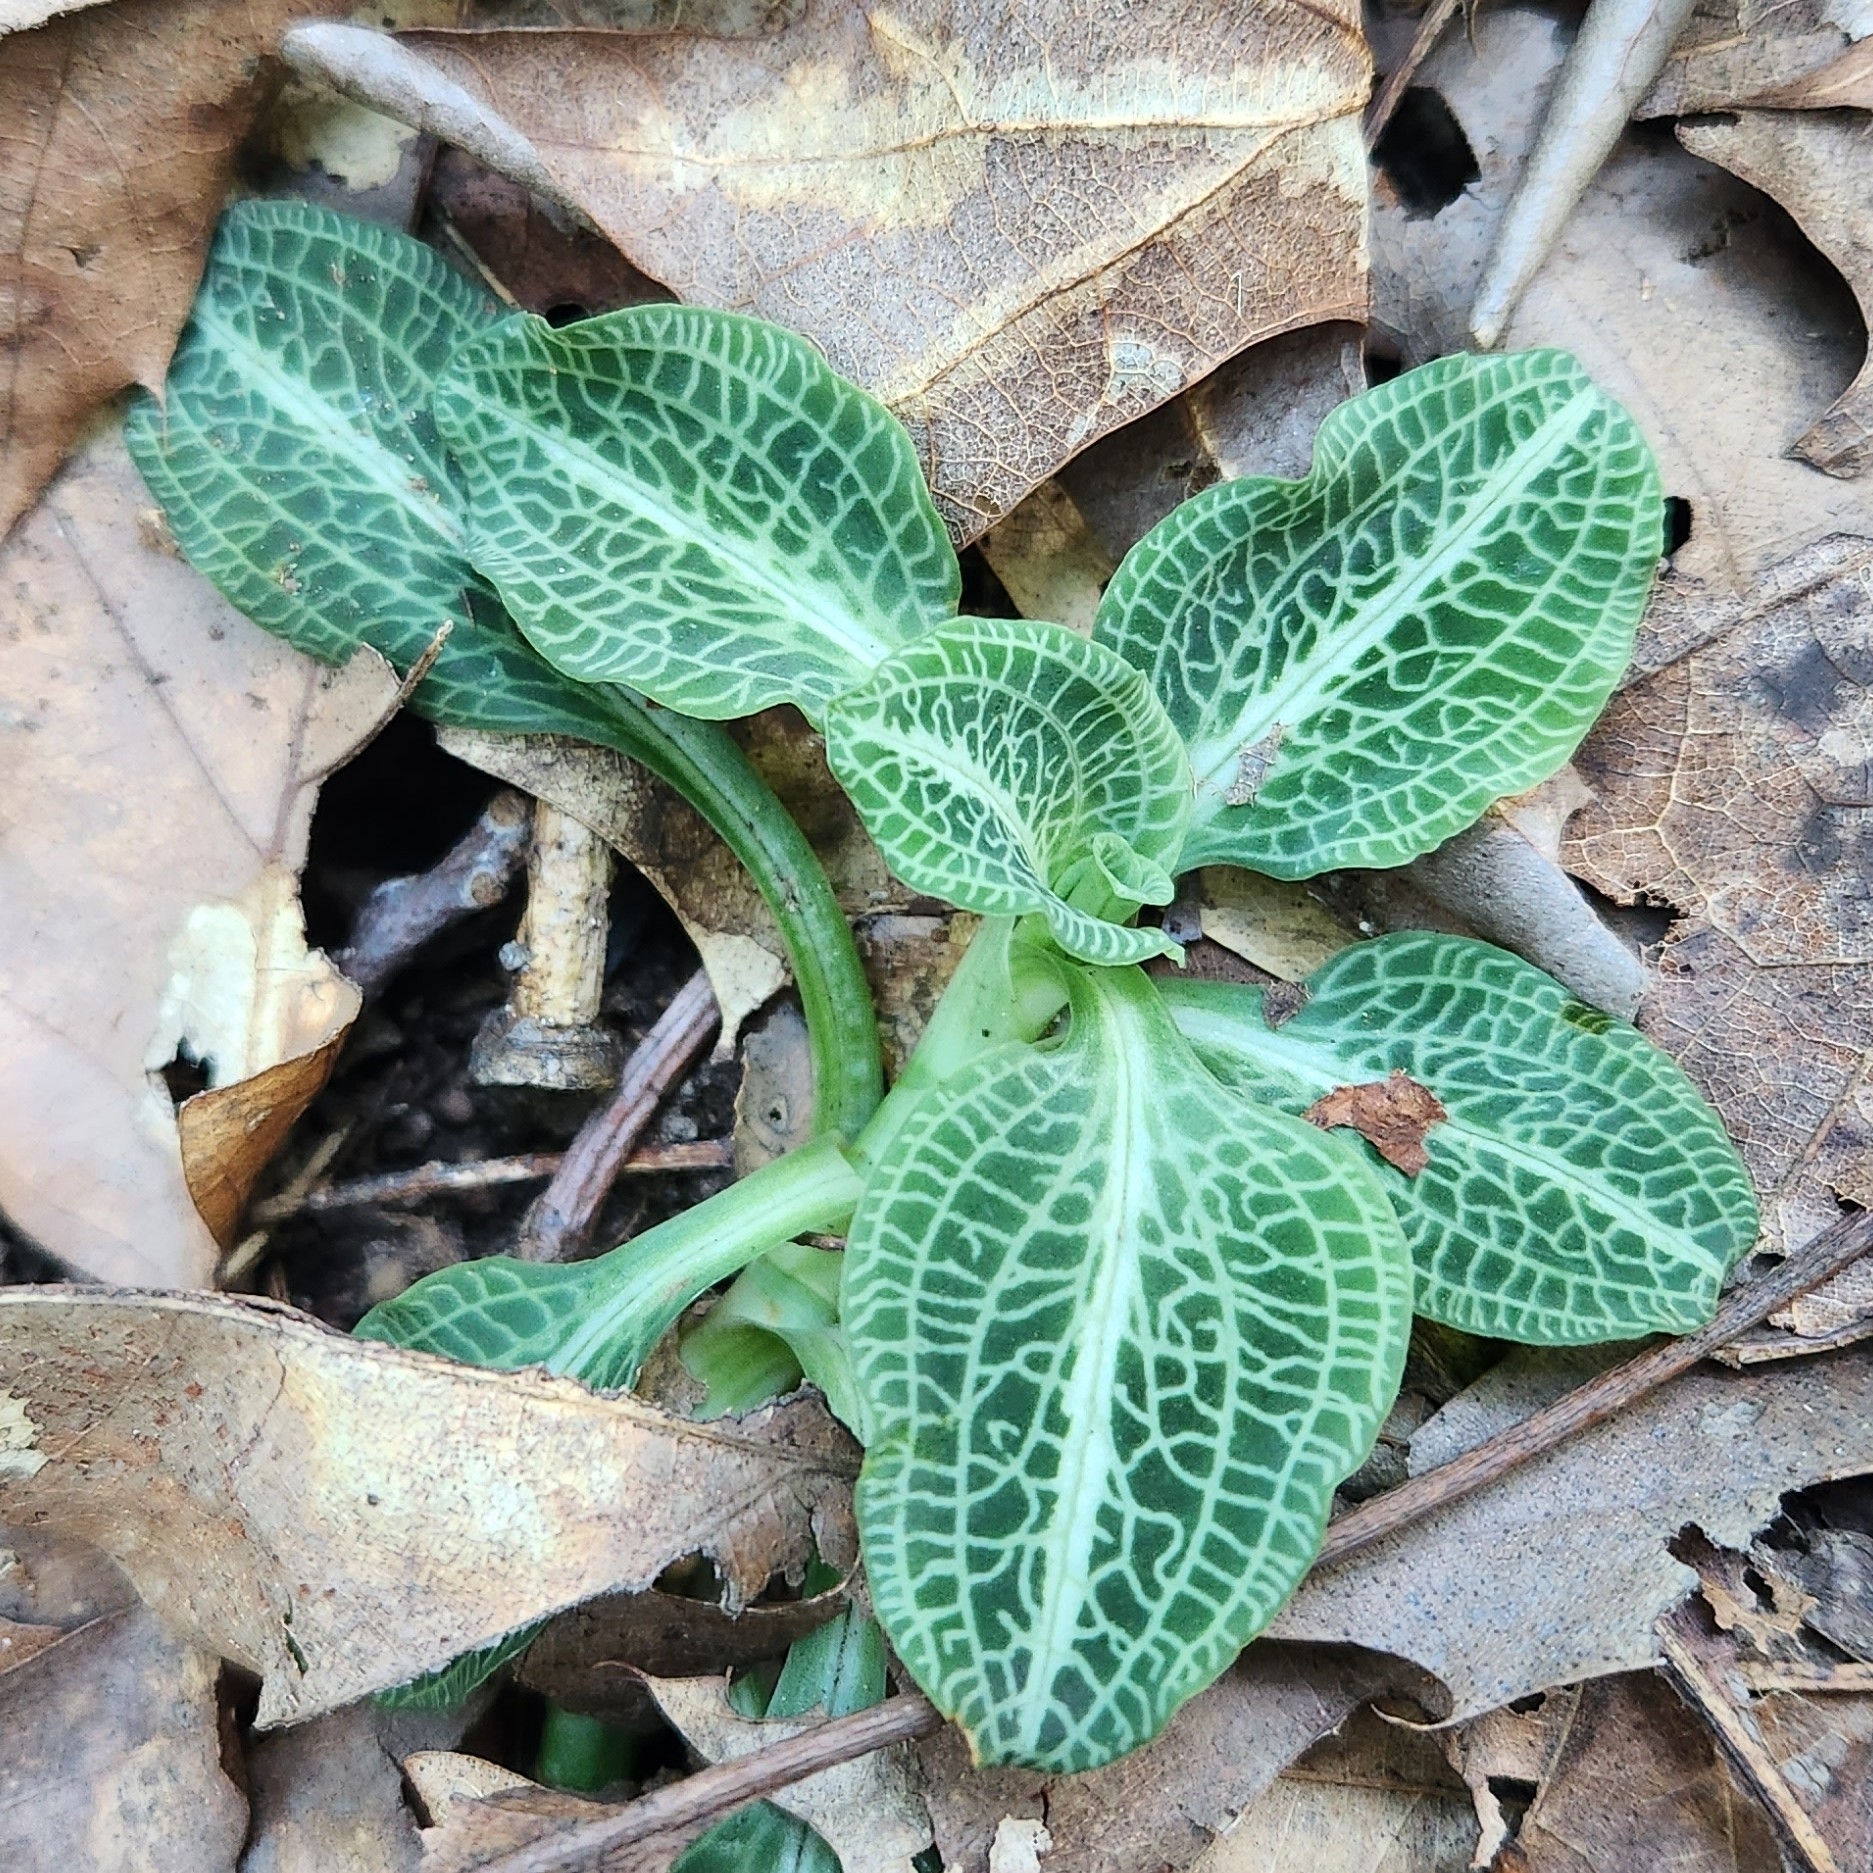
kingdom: Plantae
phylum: Tracheophyta
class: Liliopsida
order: Asparagales
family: Orchidaceae
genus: Goodyera
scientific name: Goodyera pubescens
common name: Downy rattlesnake-plantain
